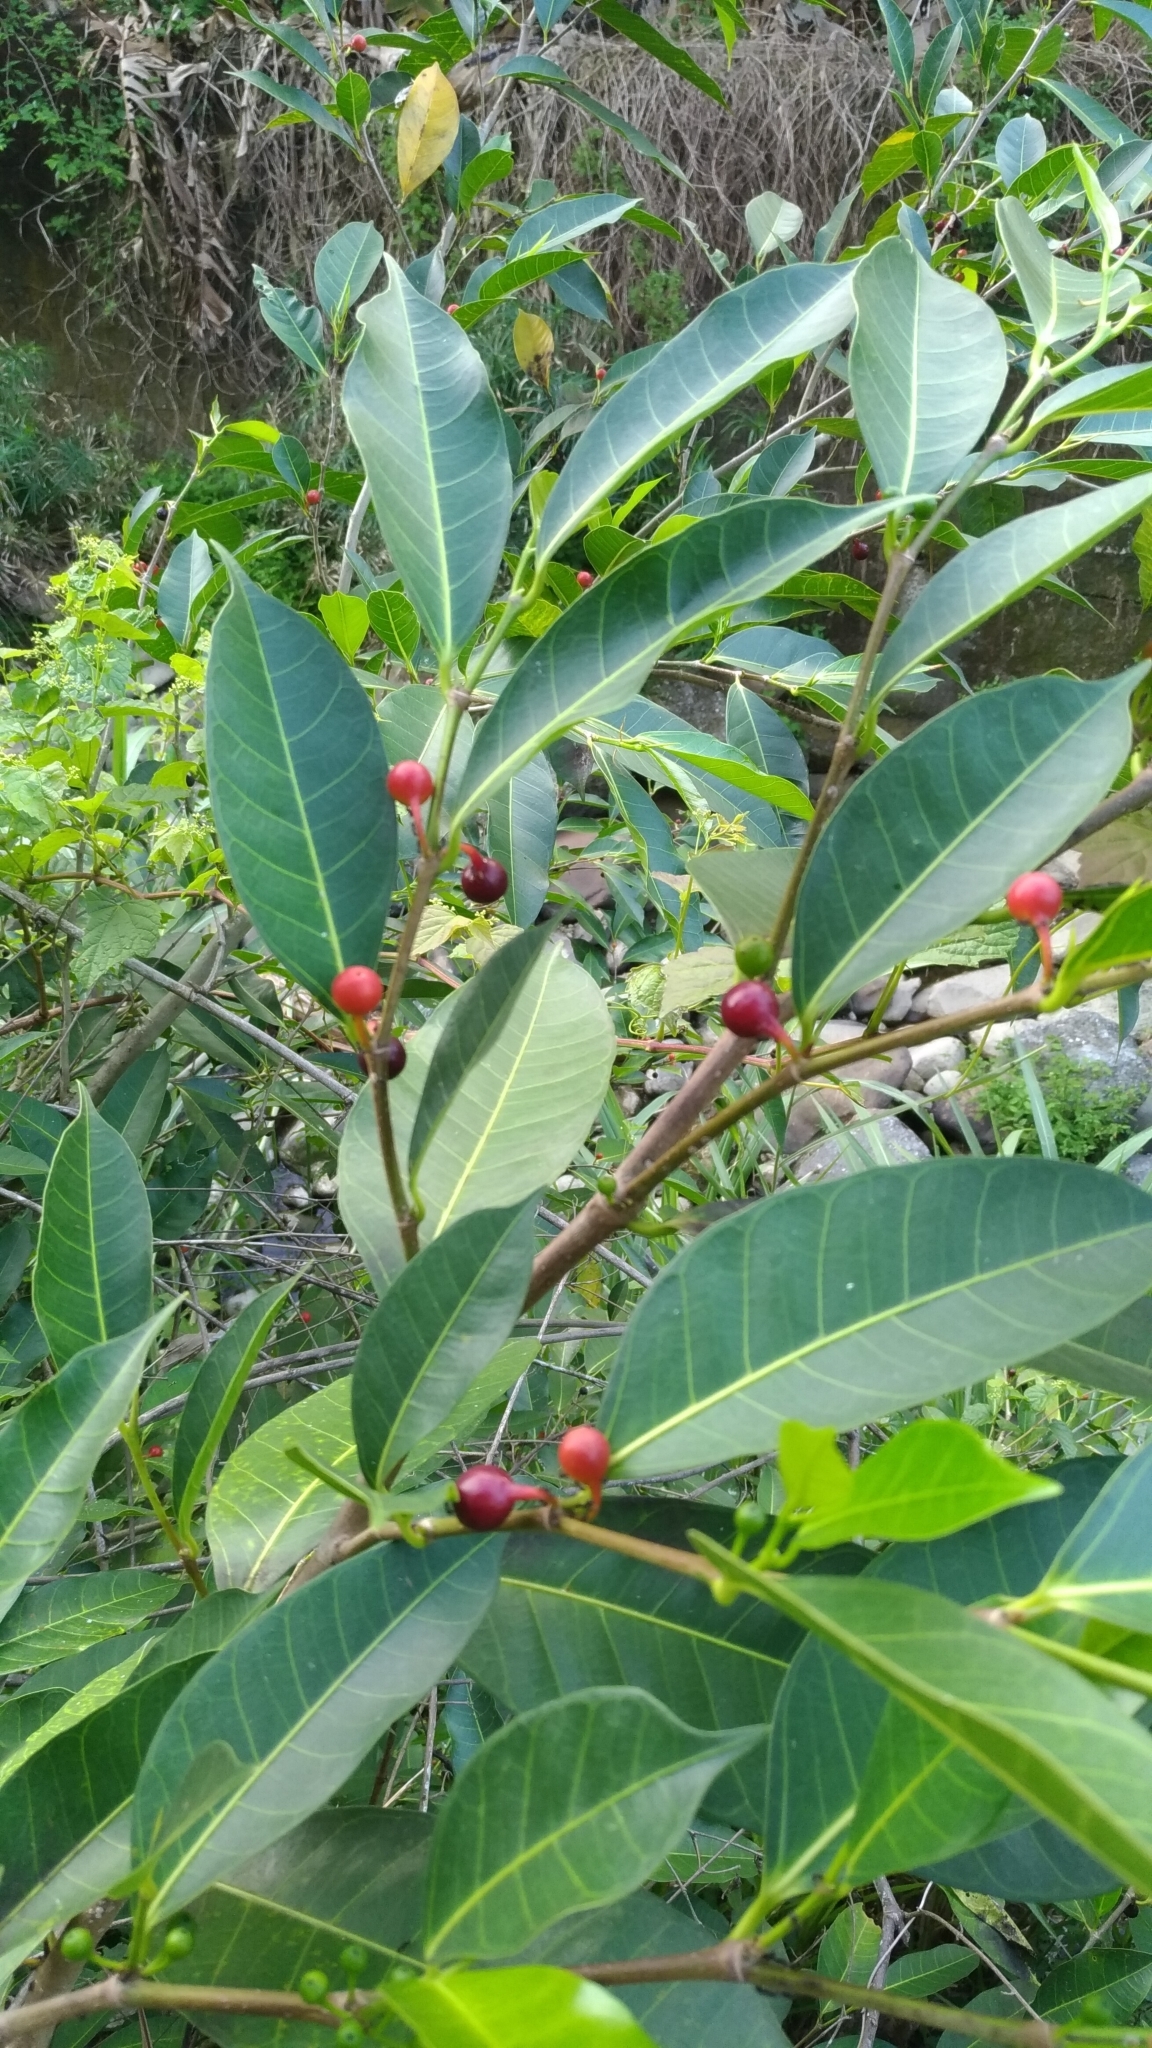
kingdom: Plantae
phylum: Tracheophyta
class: Magnoliopsida
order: Rosales
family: Moraceae
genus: Ficus
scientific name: Ficus virgata
